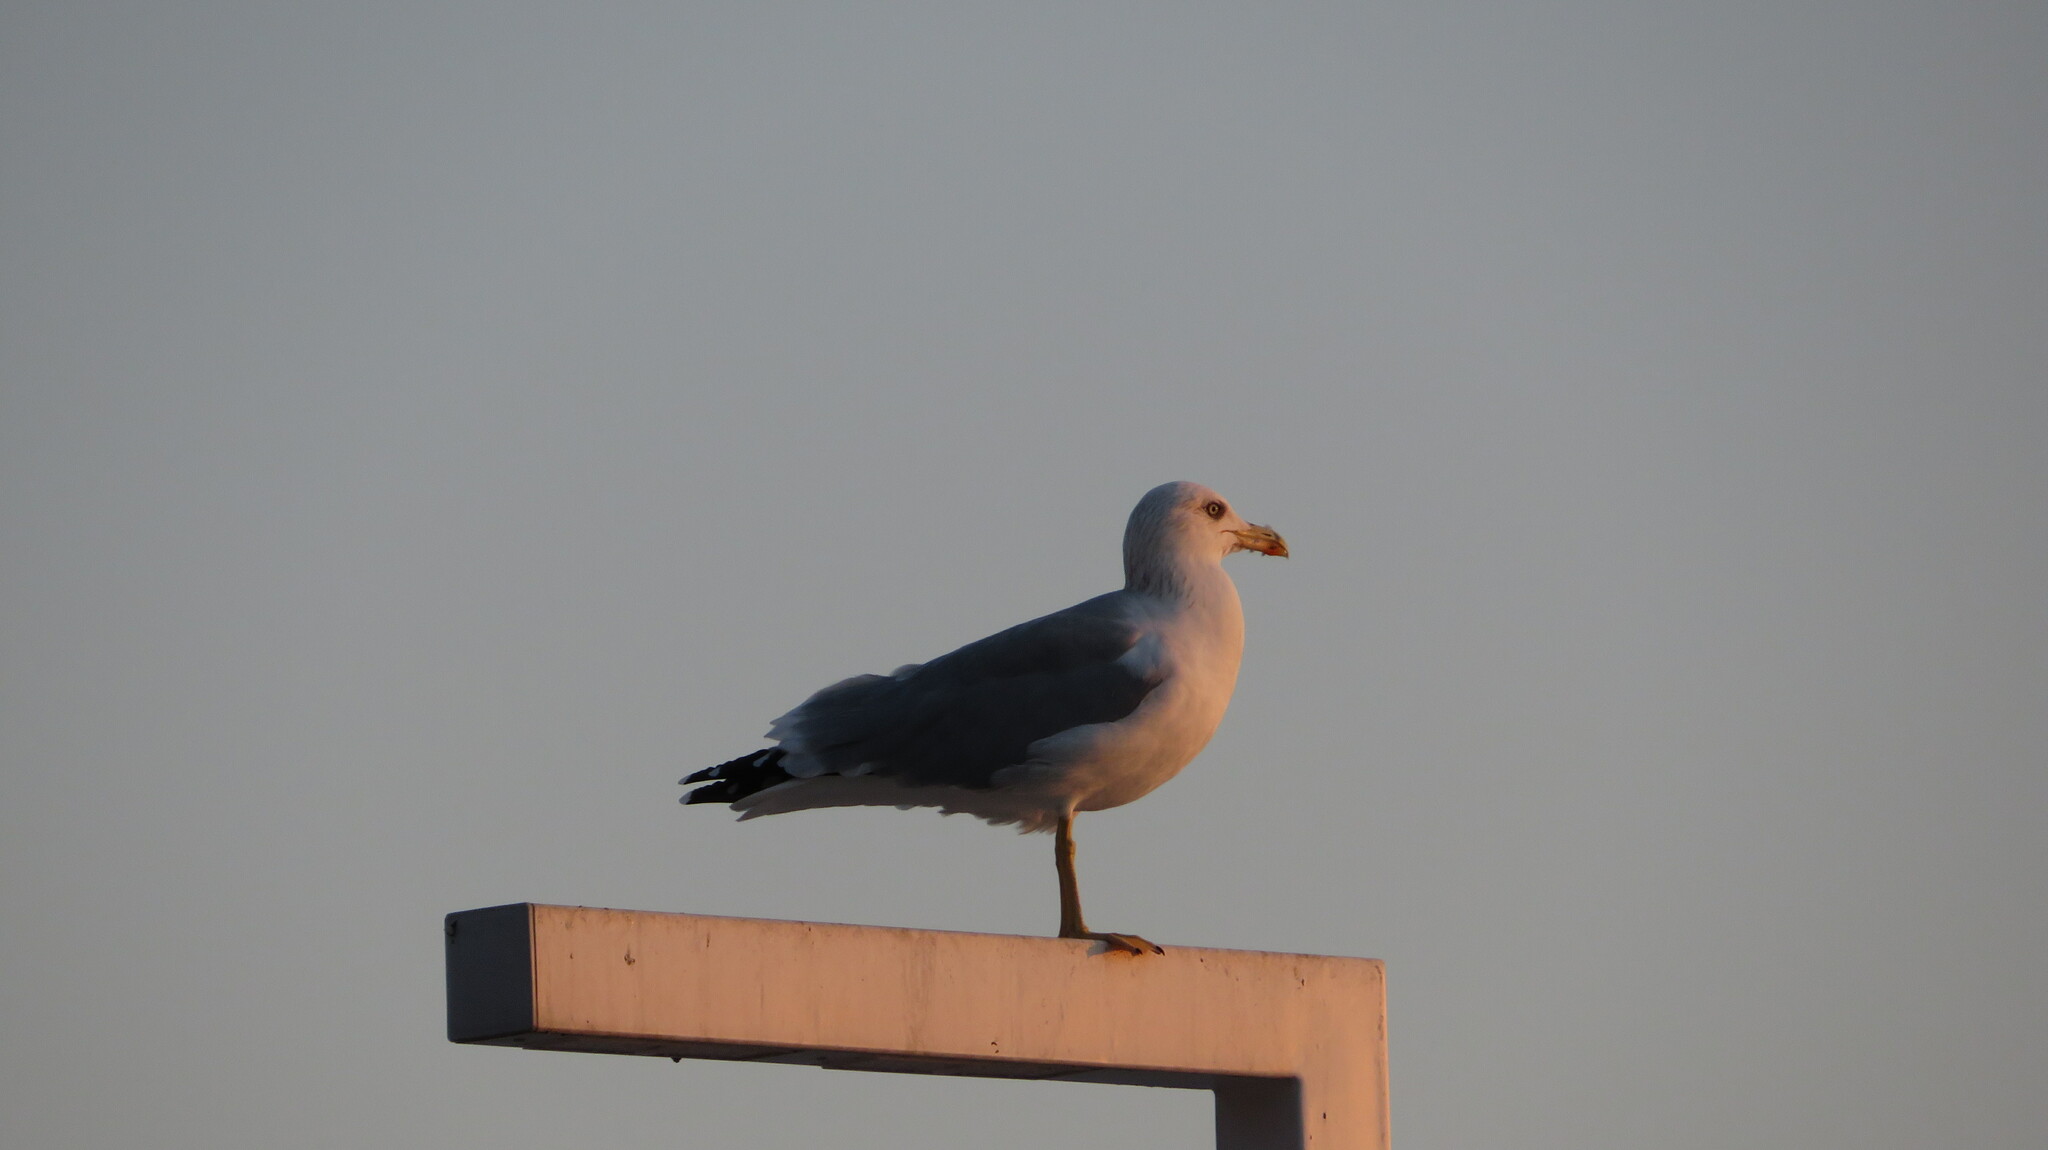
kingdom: Animalia
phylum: Chordata
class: Aves
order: Charadriiformes
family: Laridae
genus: Larus
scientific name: Larus michahellis
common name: Yellow-legged gull
